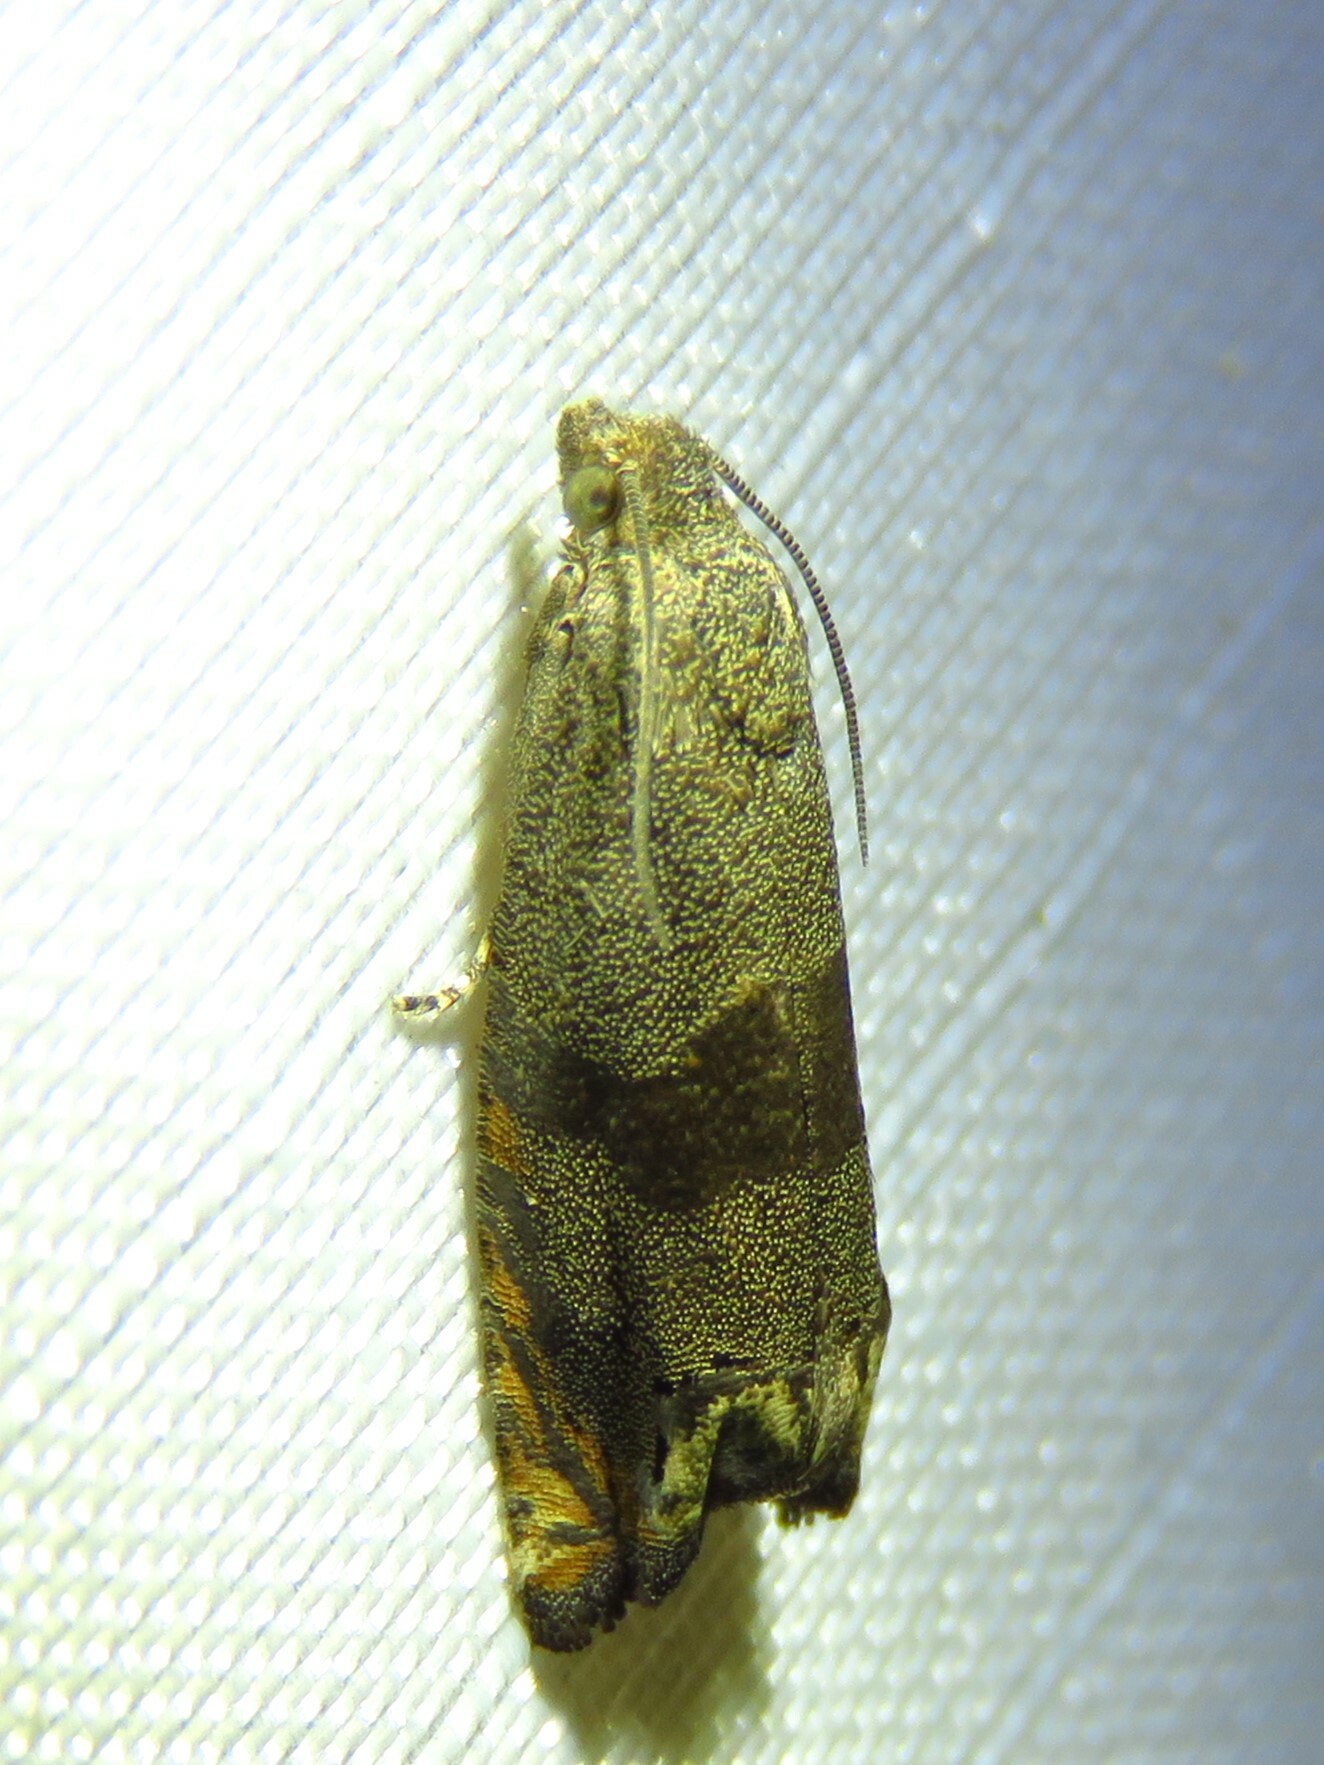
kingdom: Animalia
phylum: Arthropoda
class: Insecta
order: Lepidoptera
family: Tortricidae
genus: Epiblema
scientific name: Epiblema strenuana
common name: Ragweed borer moth
